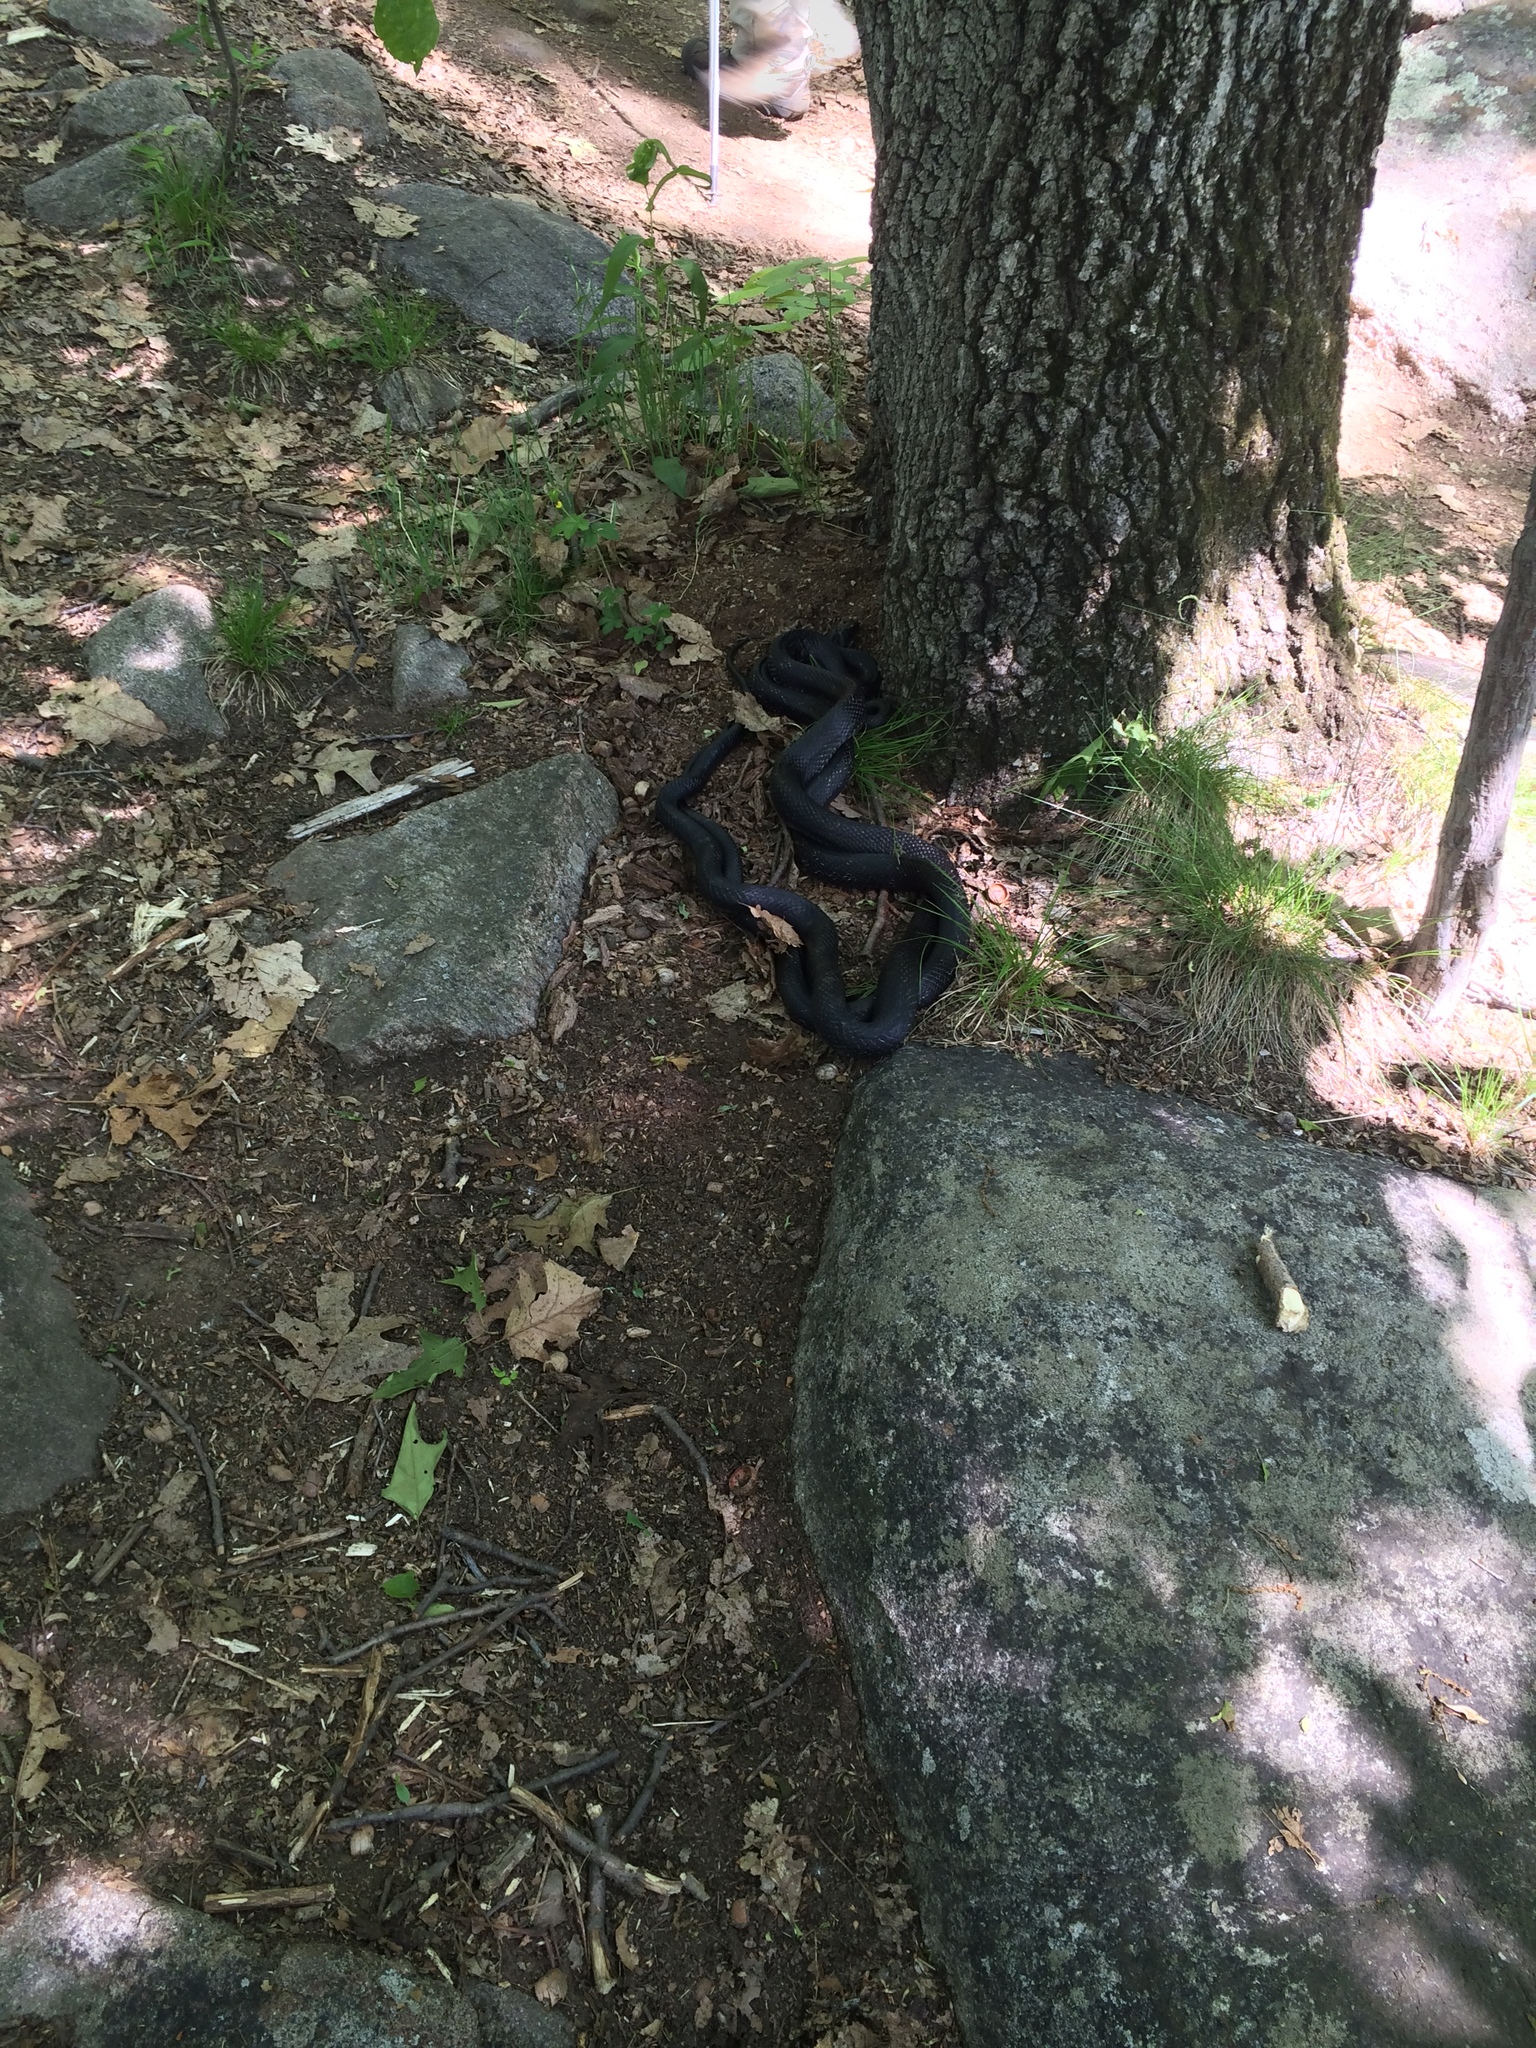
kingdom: Animalia
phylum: Chordata
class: Squamata
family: Colubridae
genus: Pantherophis
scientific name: Pantherophis alleghaniensis
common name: Eastern rat snake
